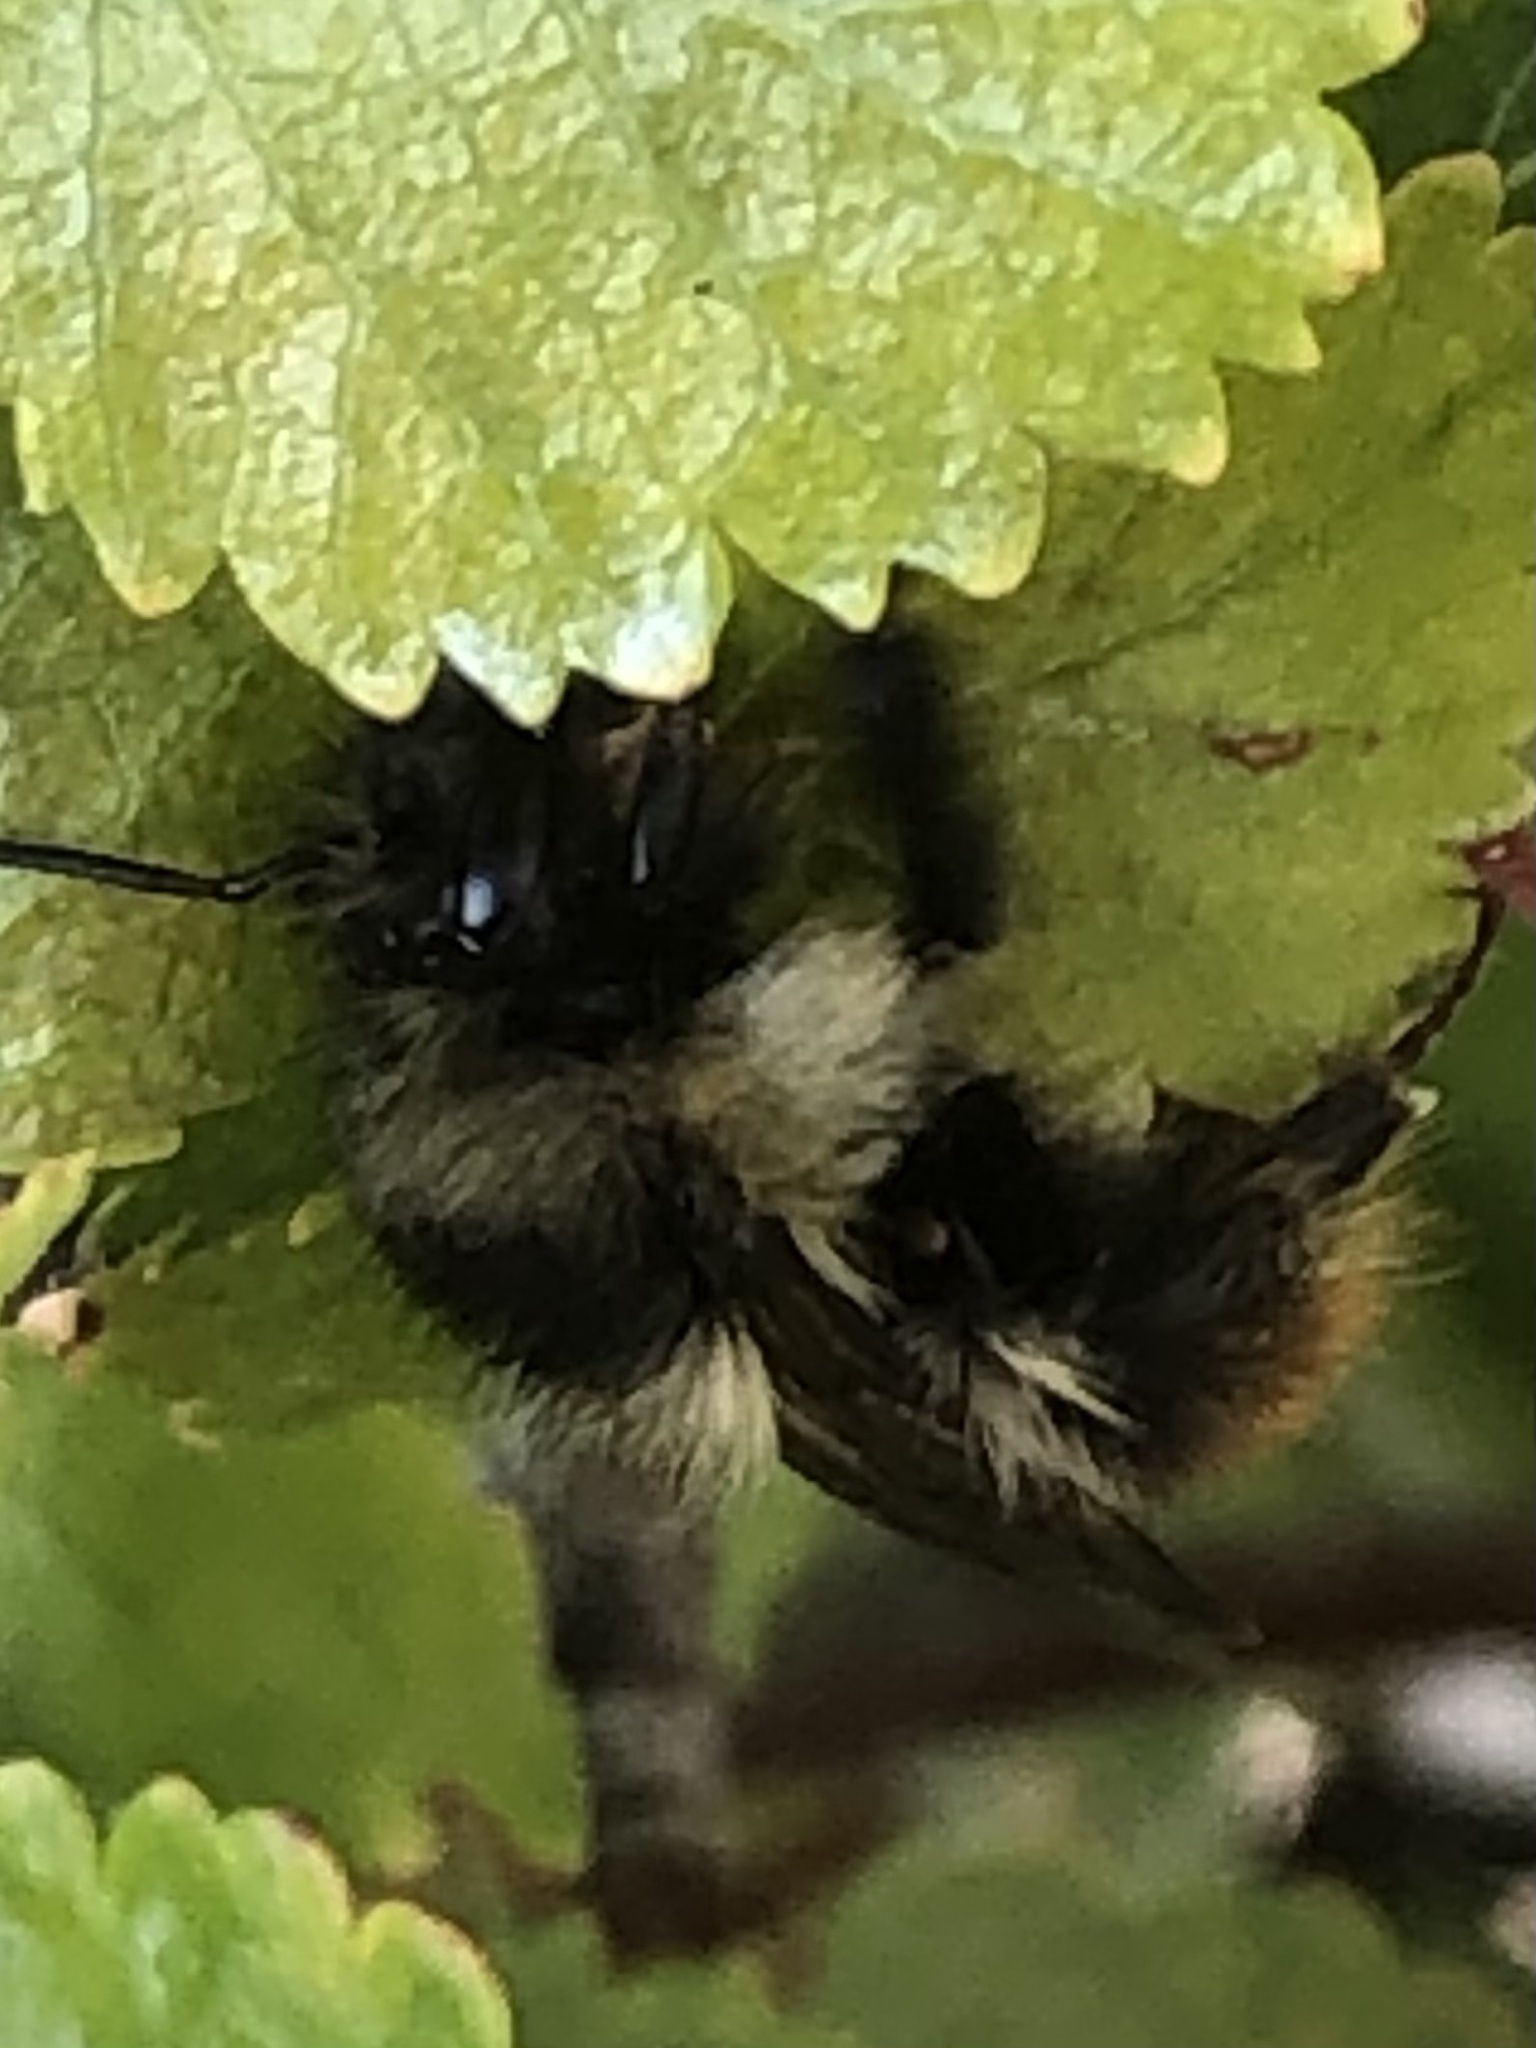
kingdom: Animalia
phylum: Arthropoda
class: Insecta
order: Hymenoptera
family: Apidae
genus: Bombus
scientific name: Bombus mixtus
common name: Fuzzy-horned bumble bee
